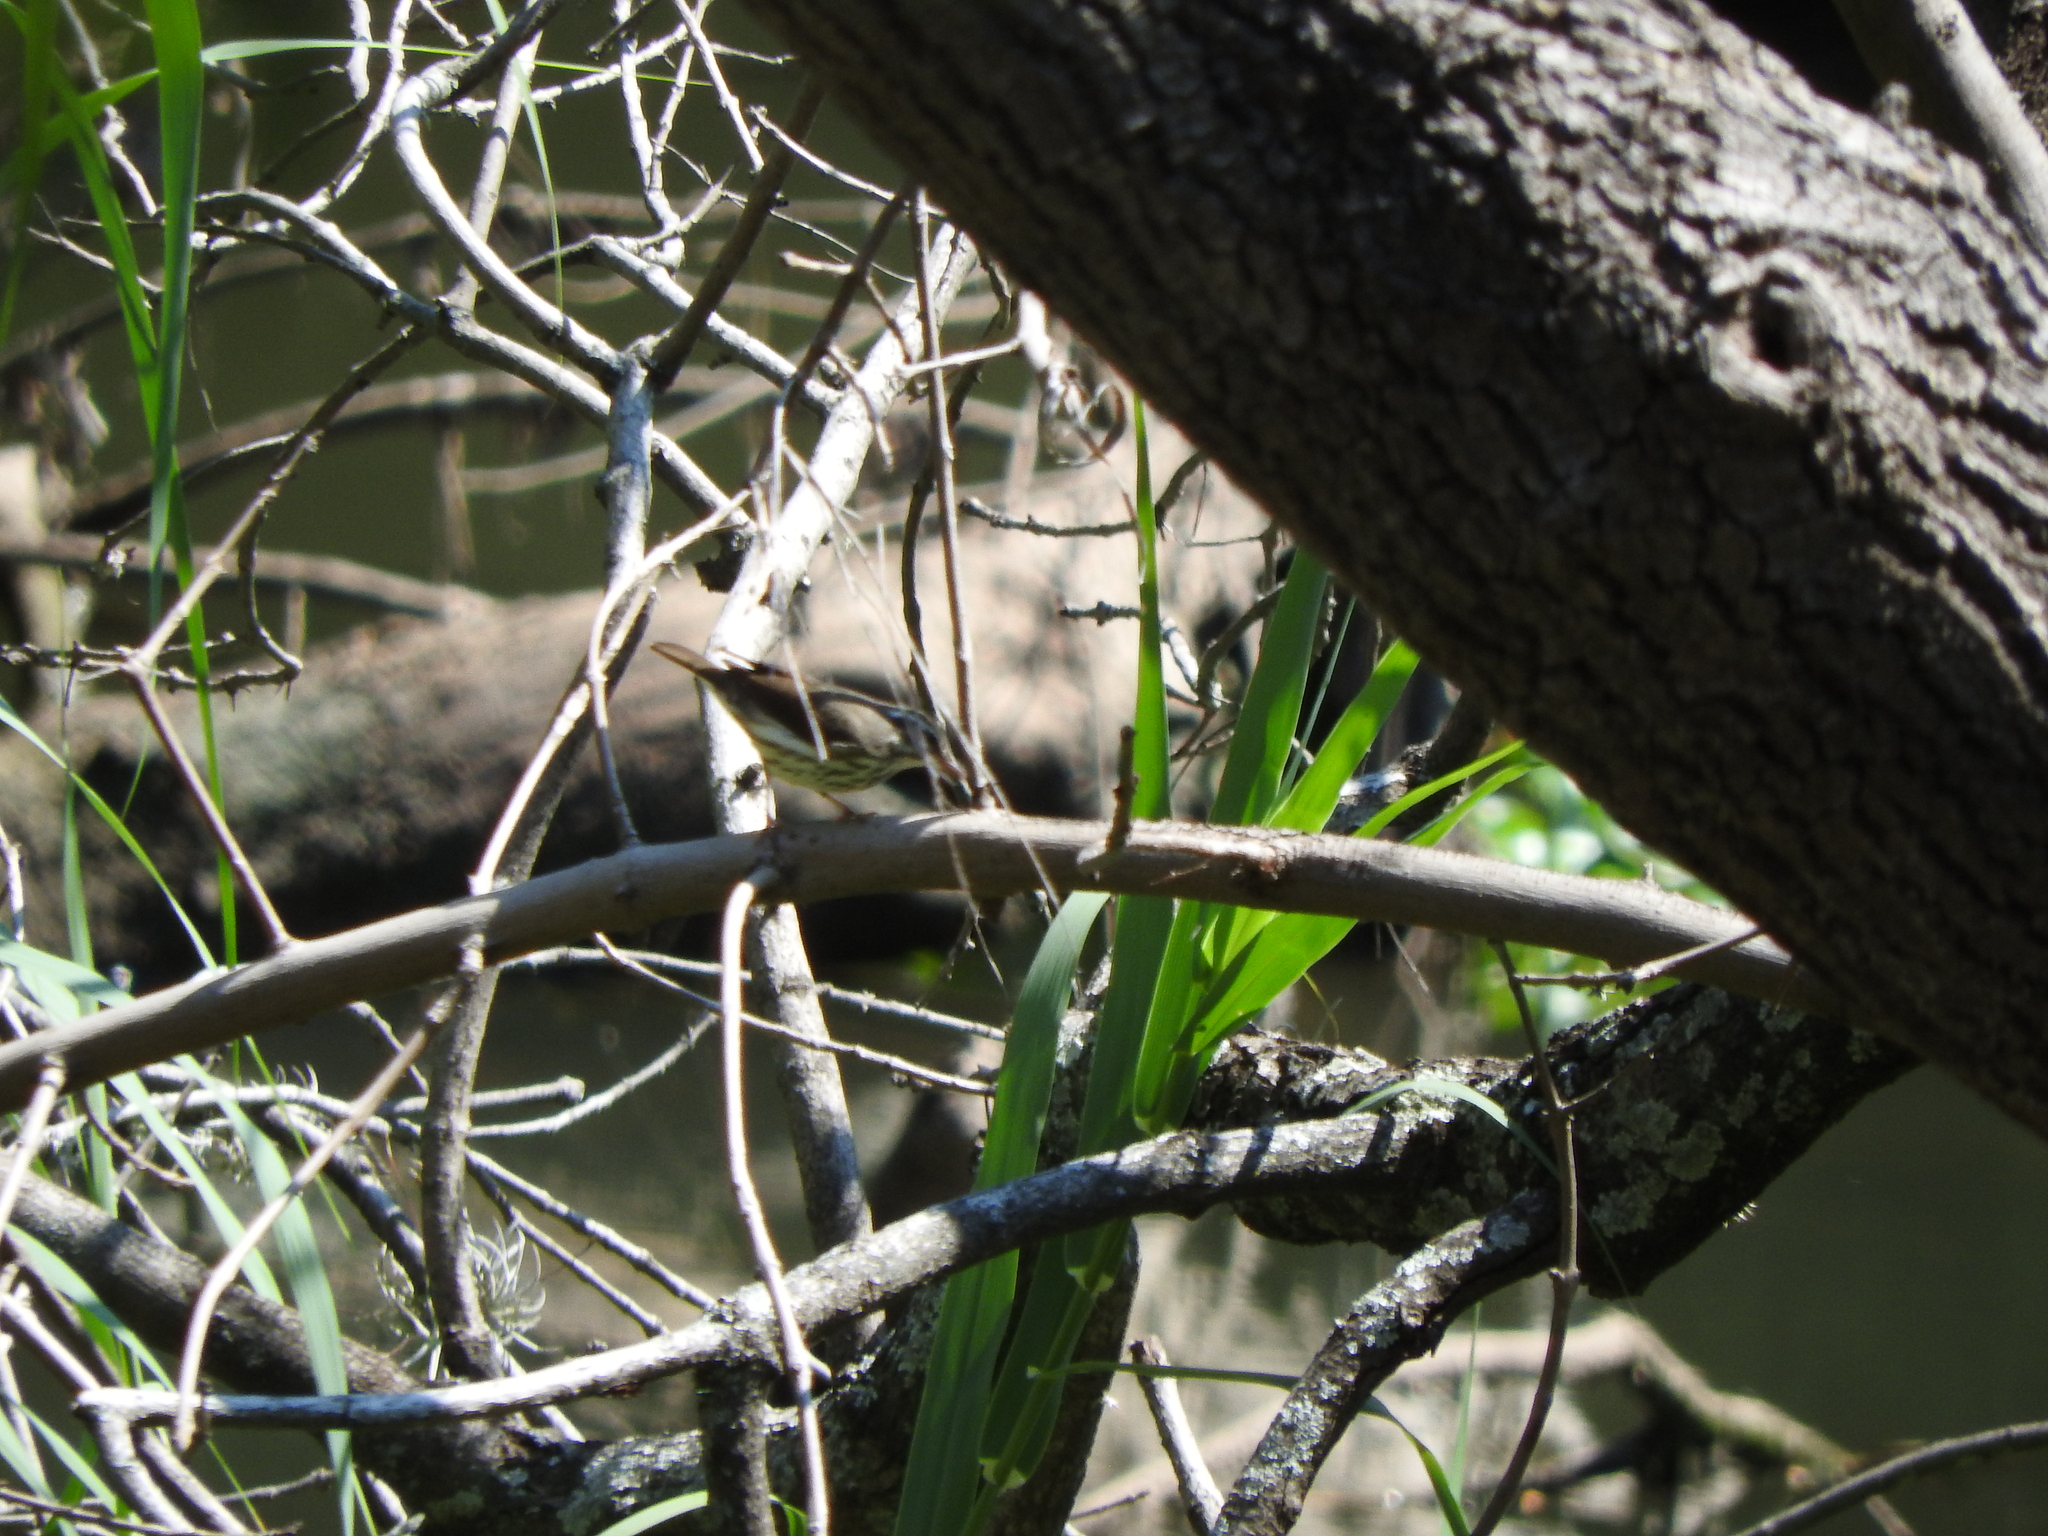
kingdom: Animalia
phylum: Chordata
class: Aves
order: Passeriformes
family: Parulidae
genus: Parkesia
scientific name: Parkesia motacilla
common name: Louisiana waterthrush
